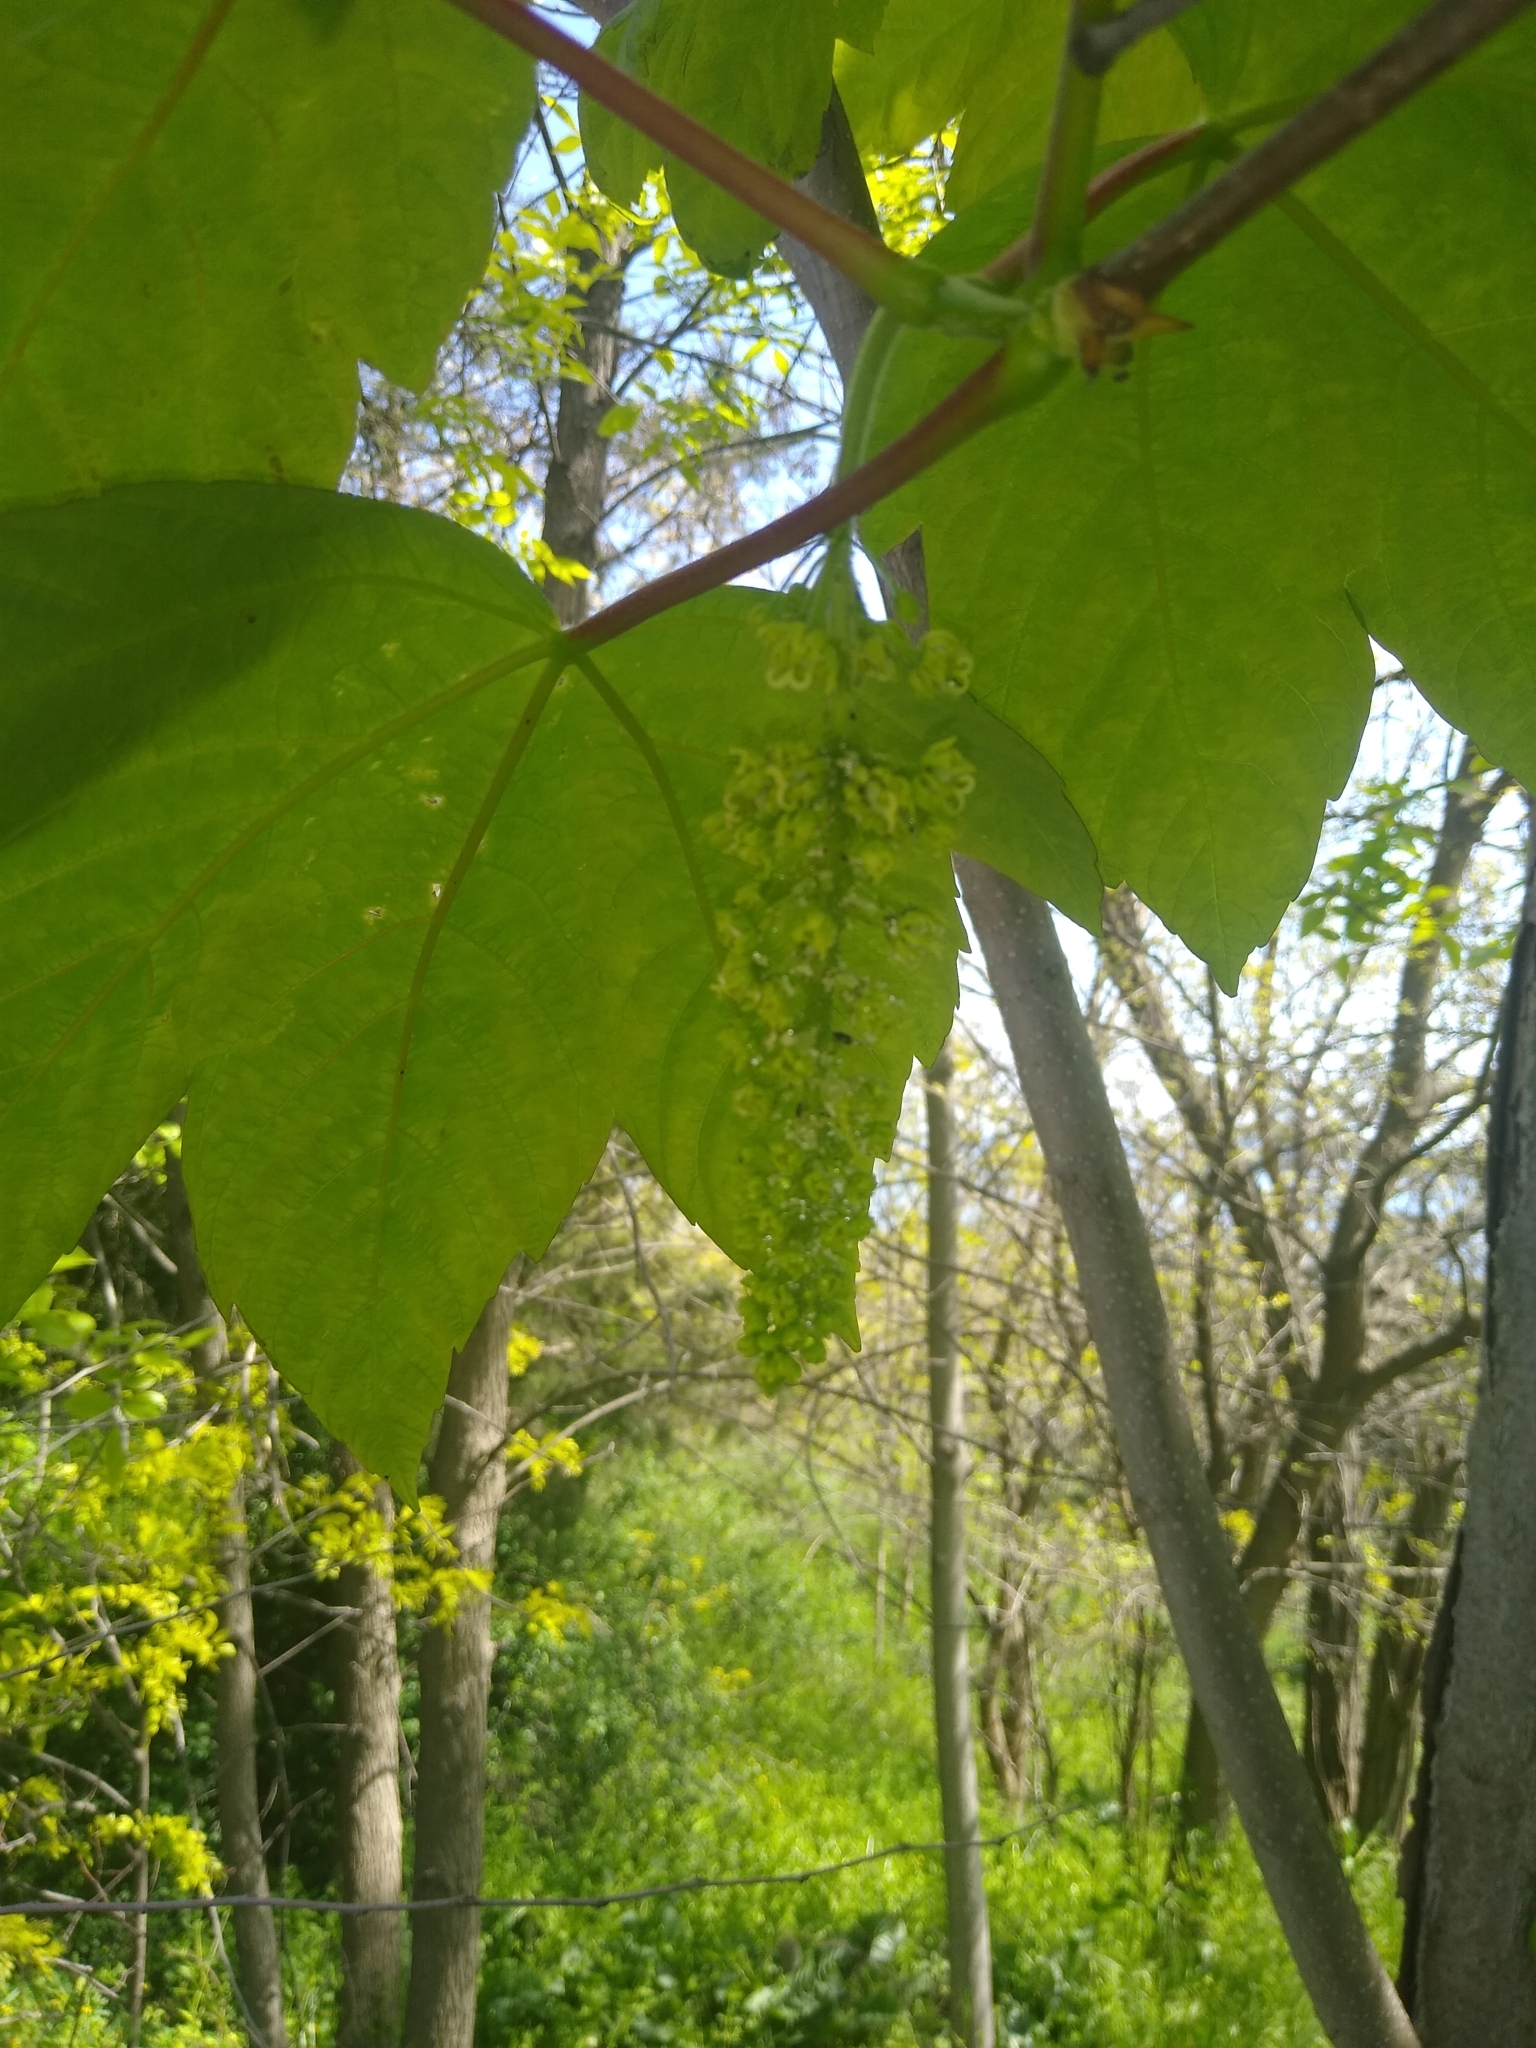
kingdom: Plantae
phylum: Tracheophyta
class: Magnoliopsida
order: Sapindales
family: Sapindaceae
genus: Acer
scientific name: Acer pseudoplatanus
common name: Sycamore
